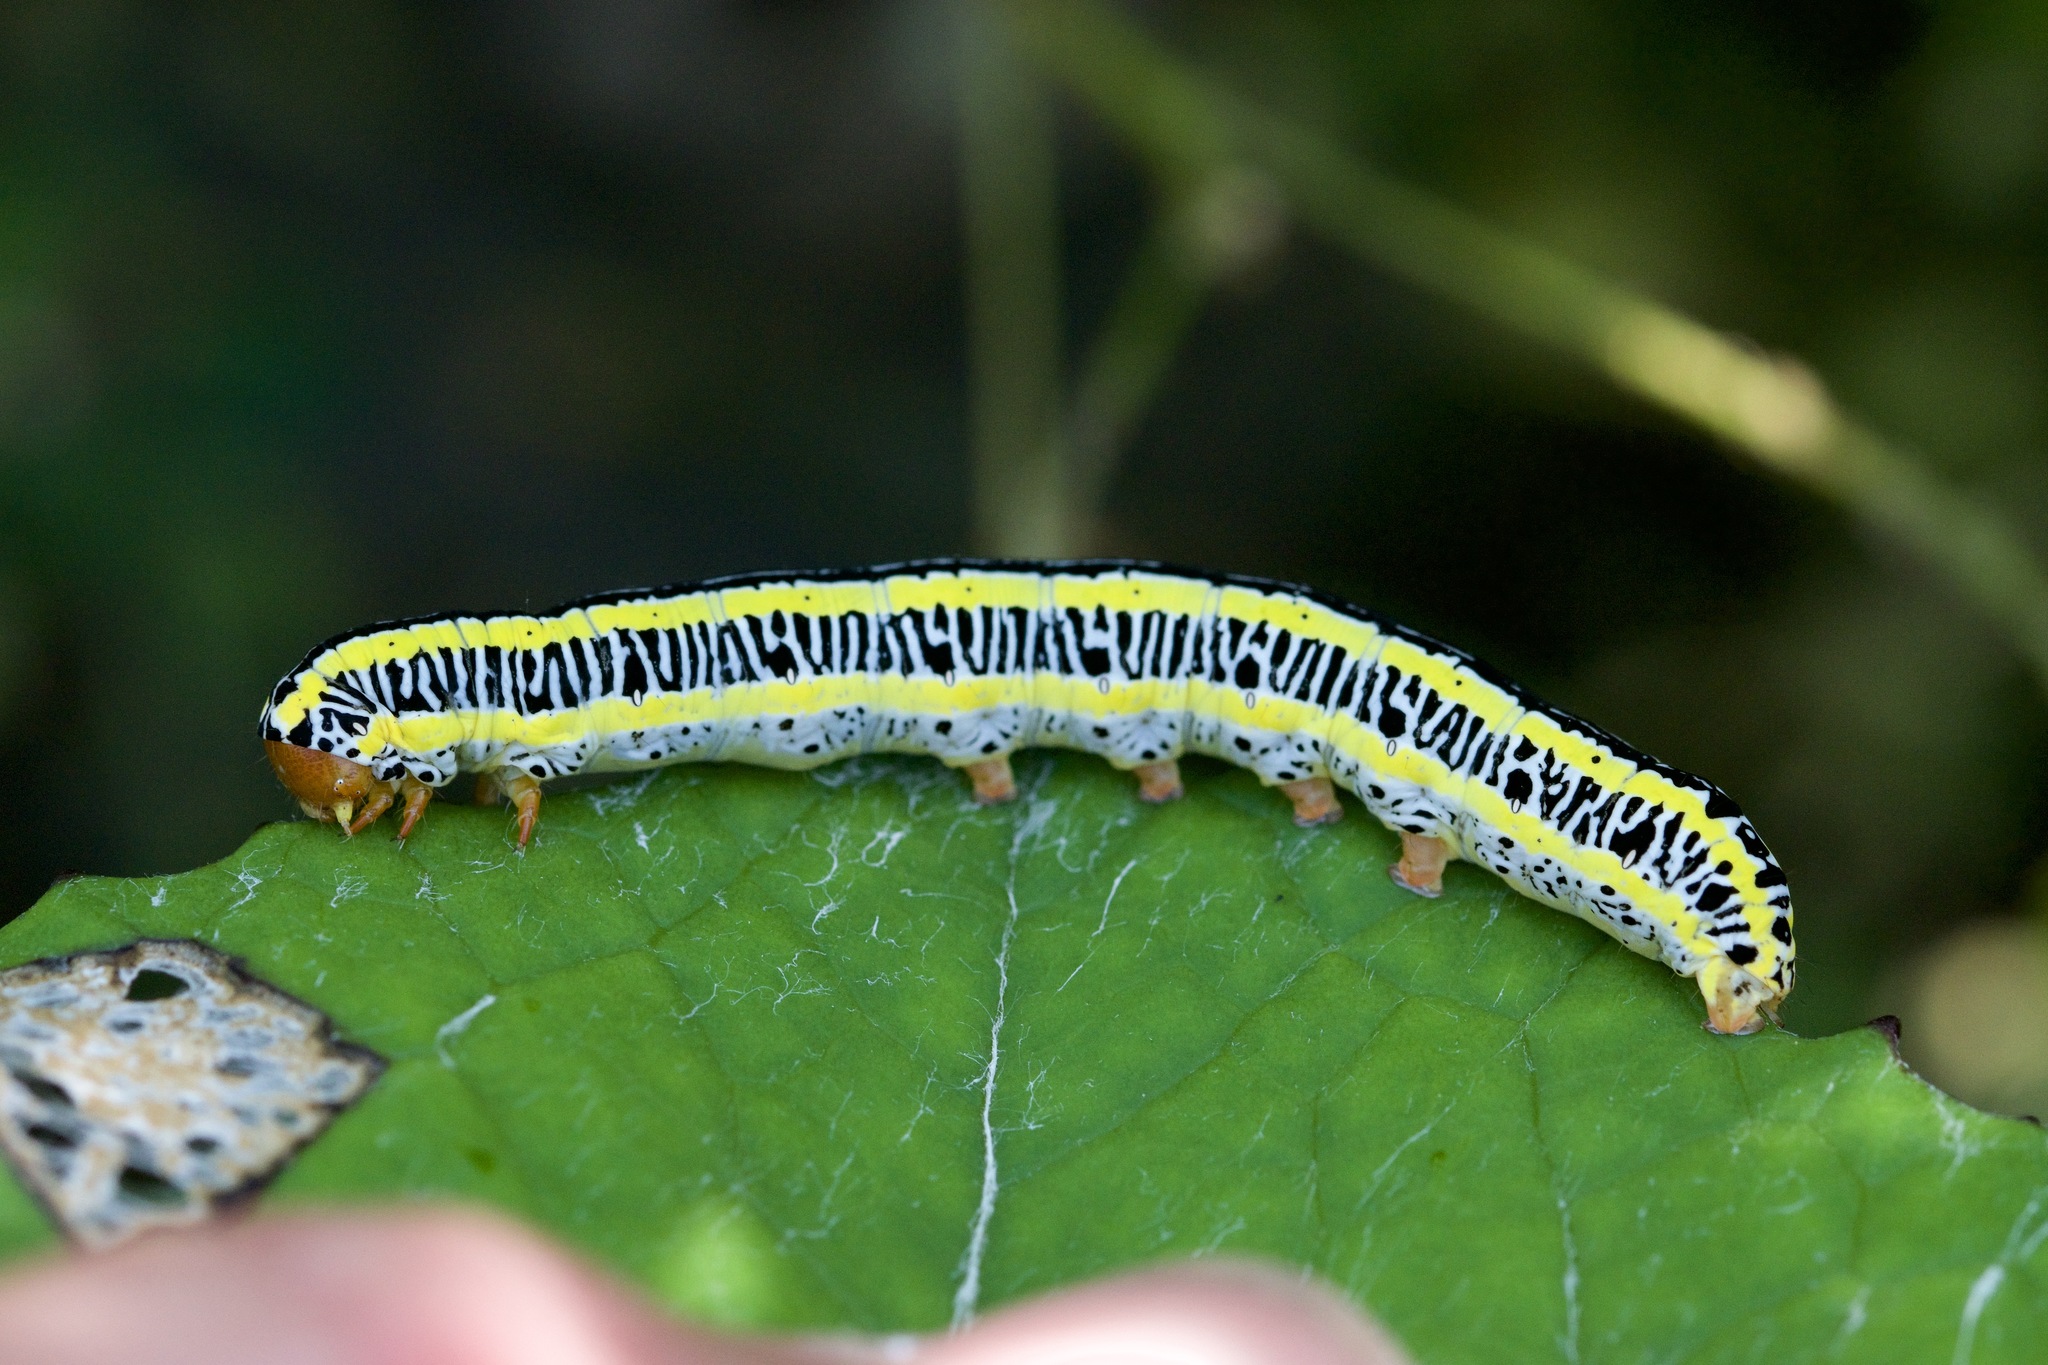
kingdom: Animalia
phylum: Arthropoda
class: Insecta
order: Lepidoptera
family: Noctuidae
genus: Melanchra
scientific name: Melanchra picta
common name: Zebra caterpillar
